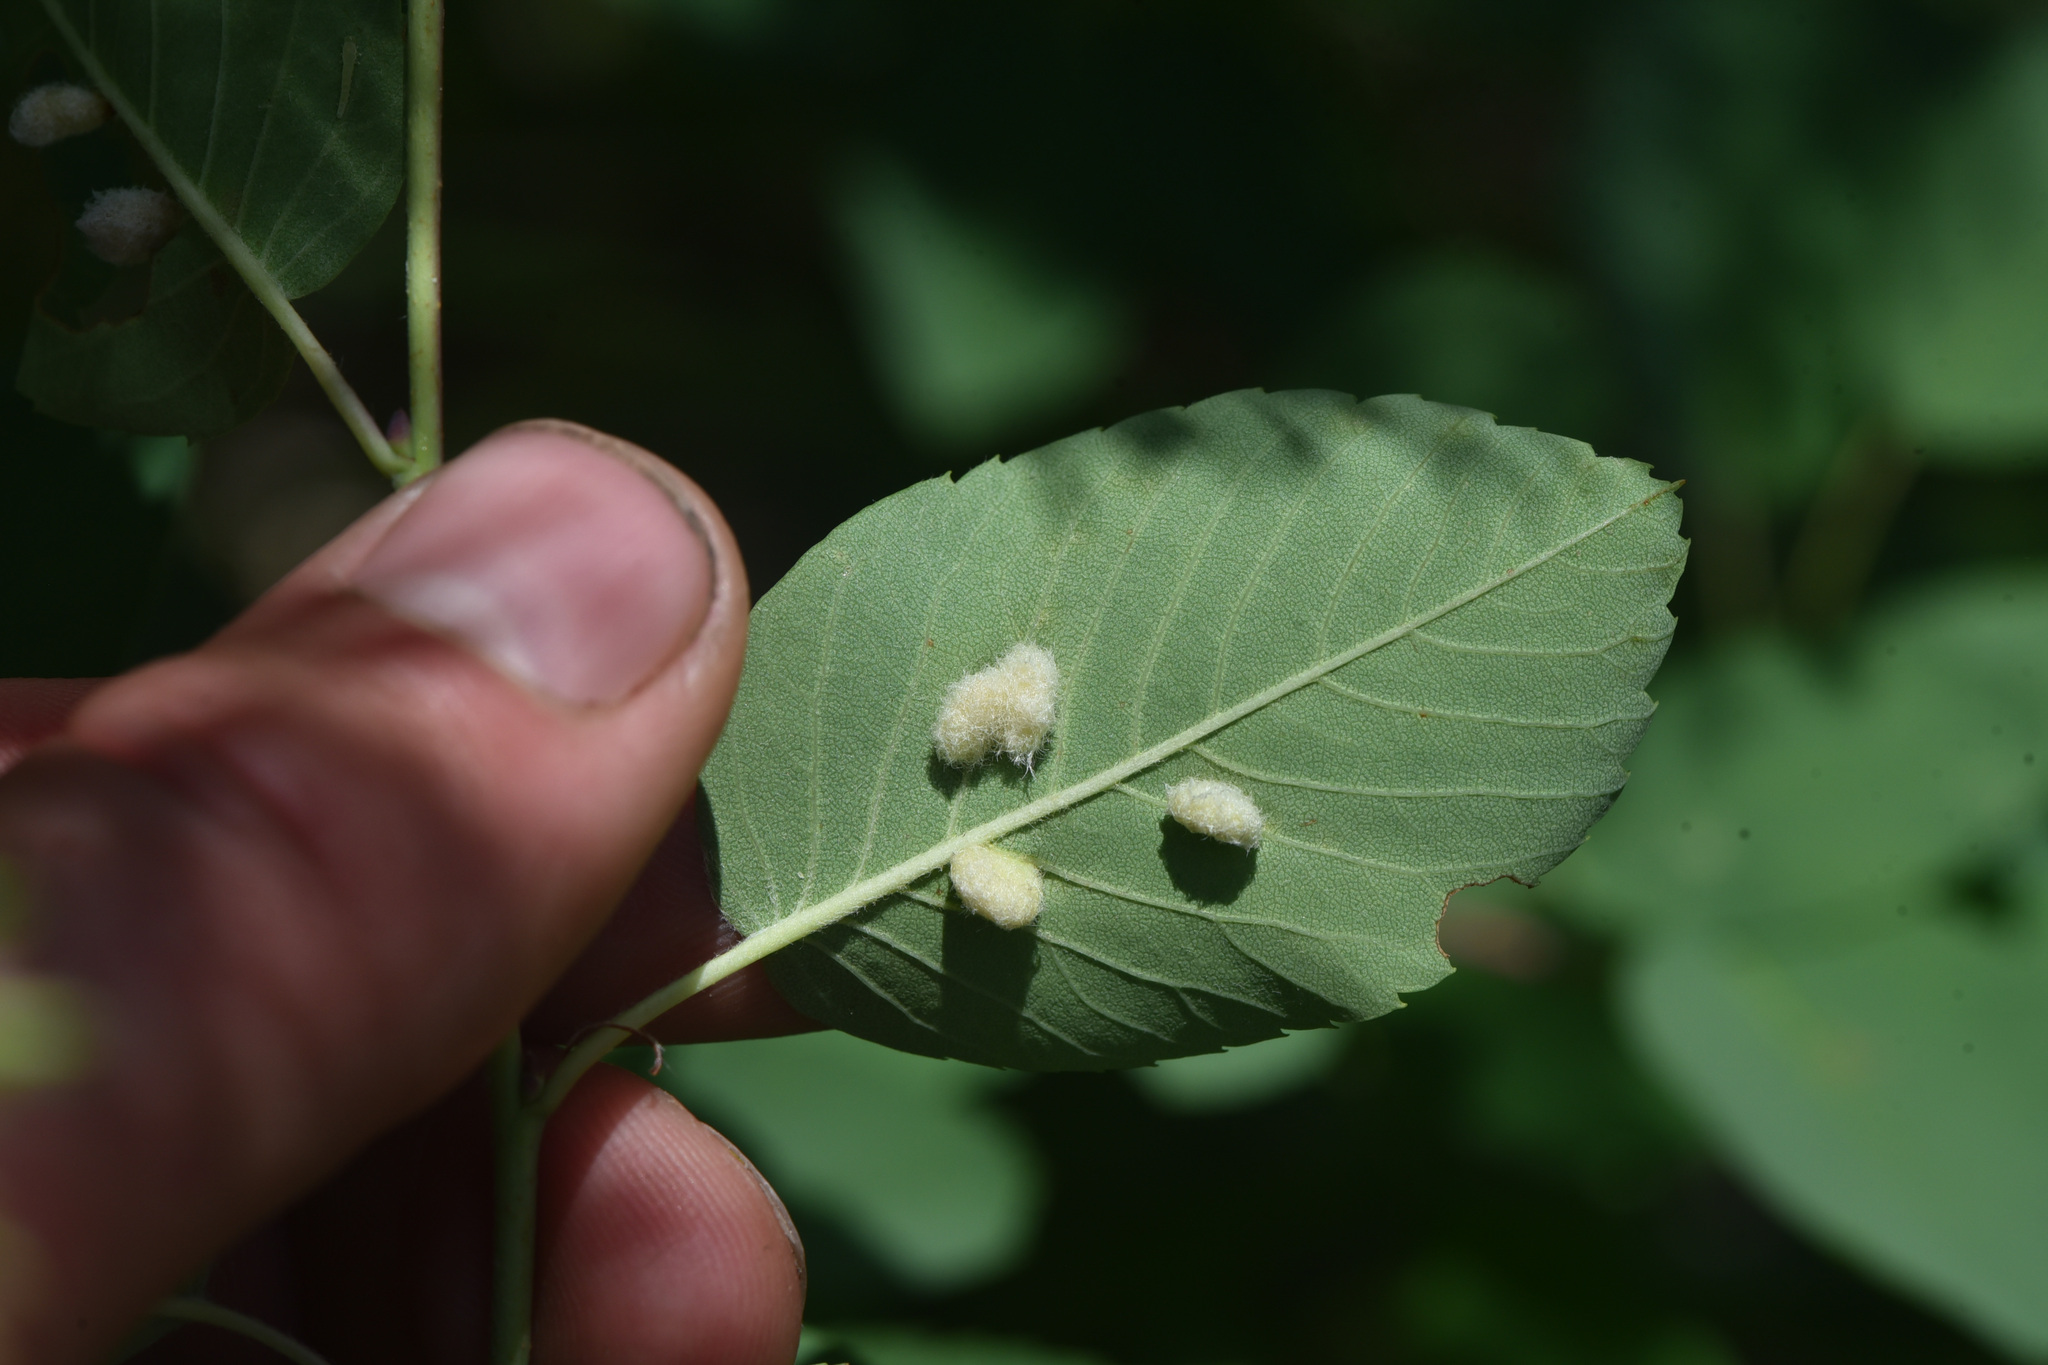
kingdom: Plantae
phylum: Tracheophyta
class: Magnoliopsida
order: Rosales
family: Rosaceae
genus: Amelanchier
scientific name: Amelanchier alnifolia
